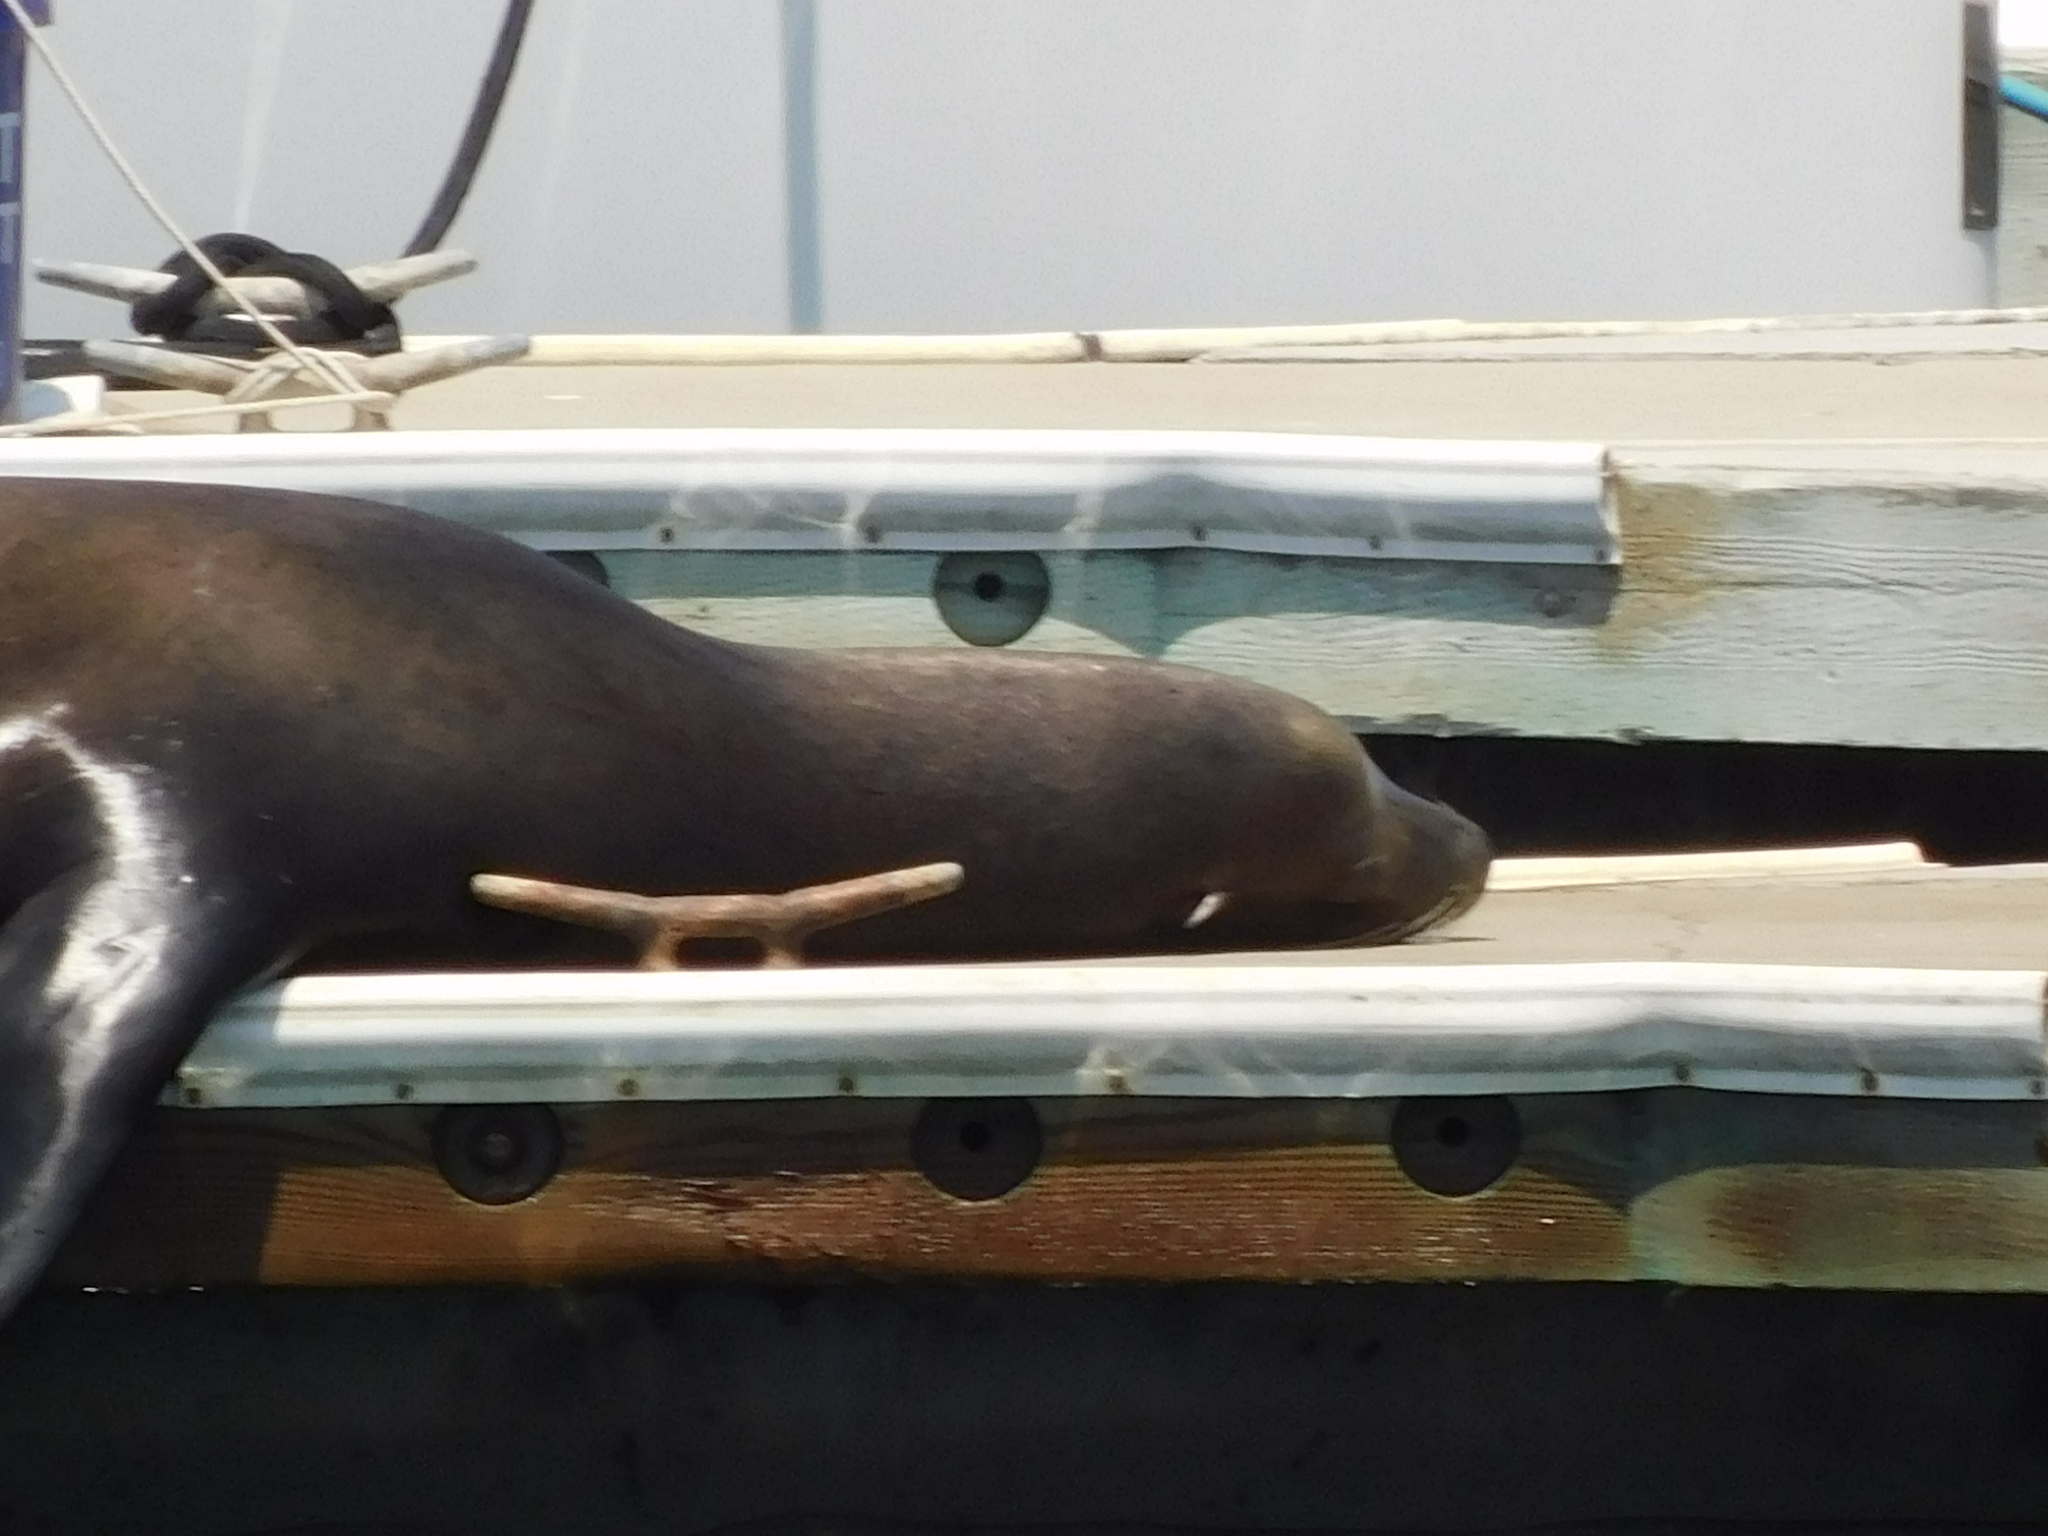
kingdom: Animalia
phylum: Chordata
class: Mammalia
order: Carnivora
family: Otariidae
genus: Zalophus
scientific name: Zalophus californianus
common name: California sea lion
